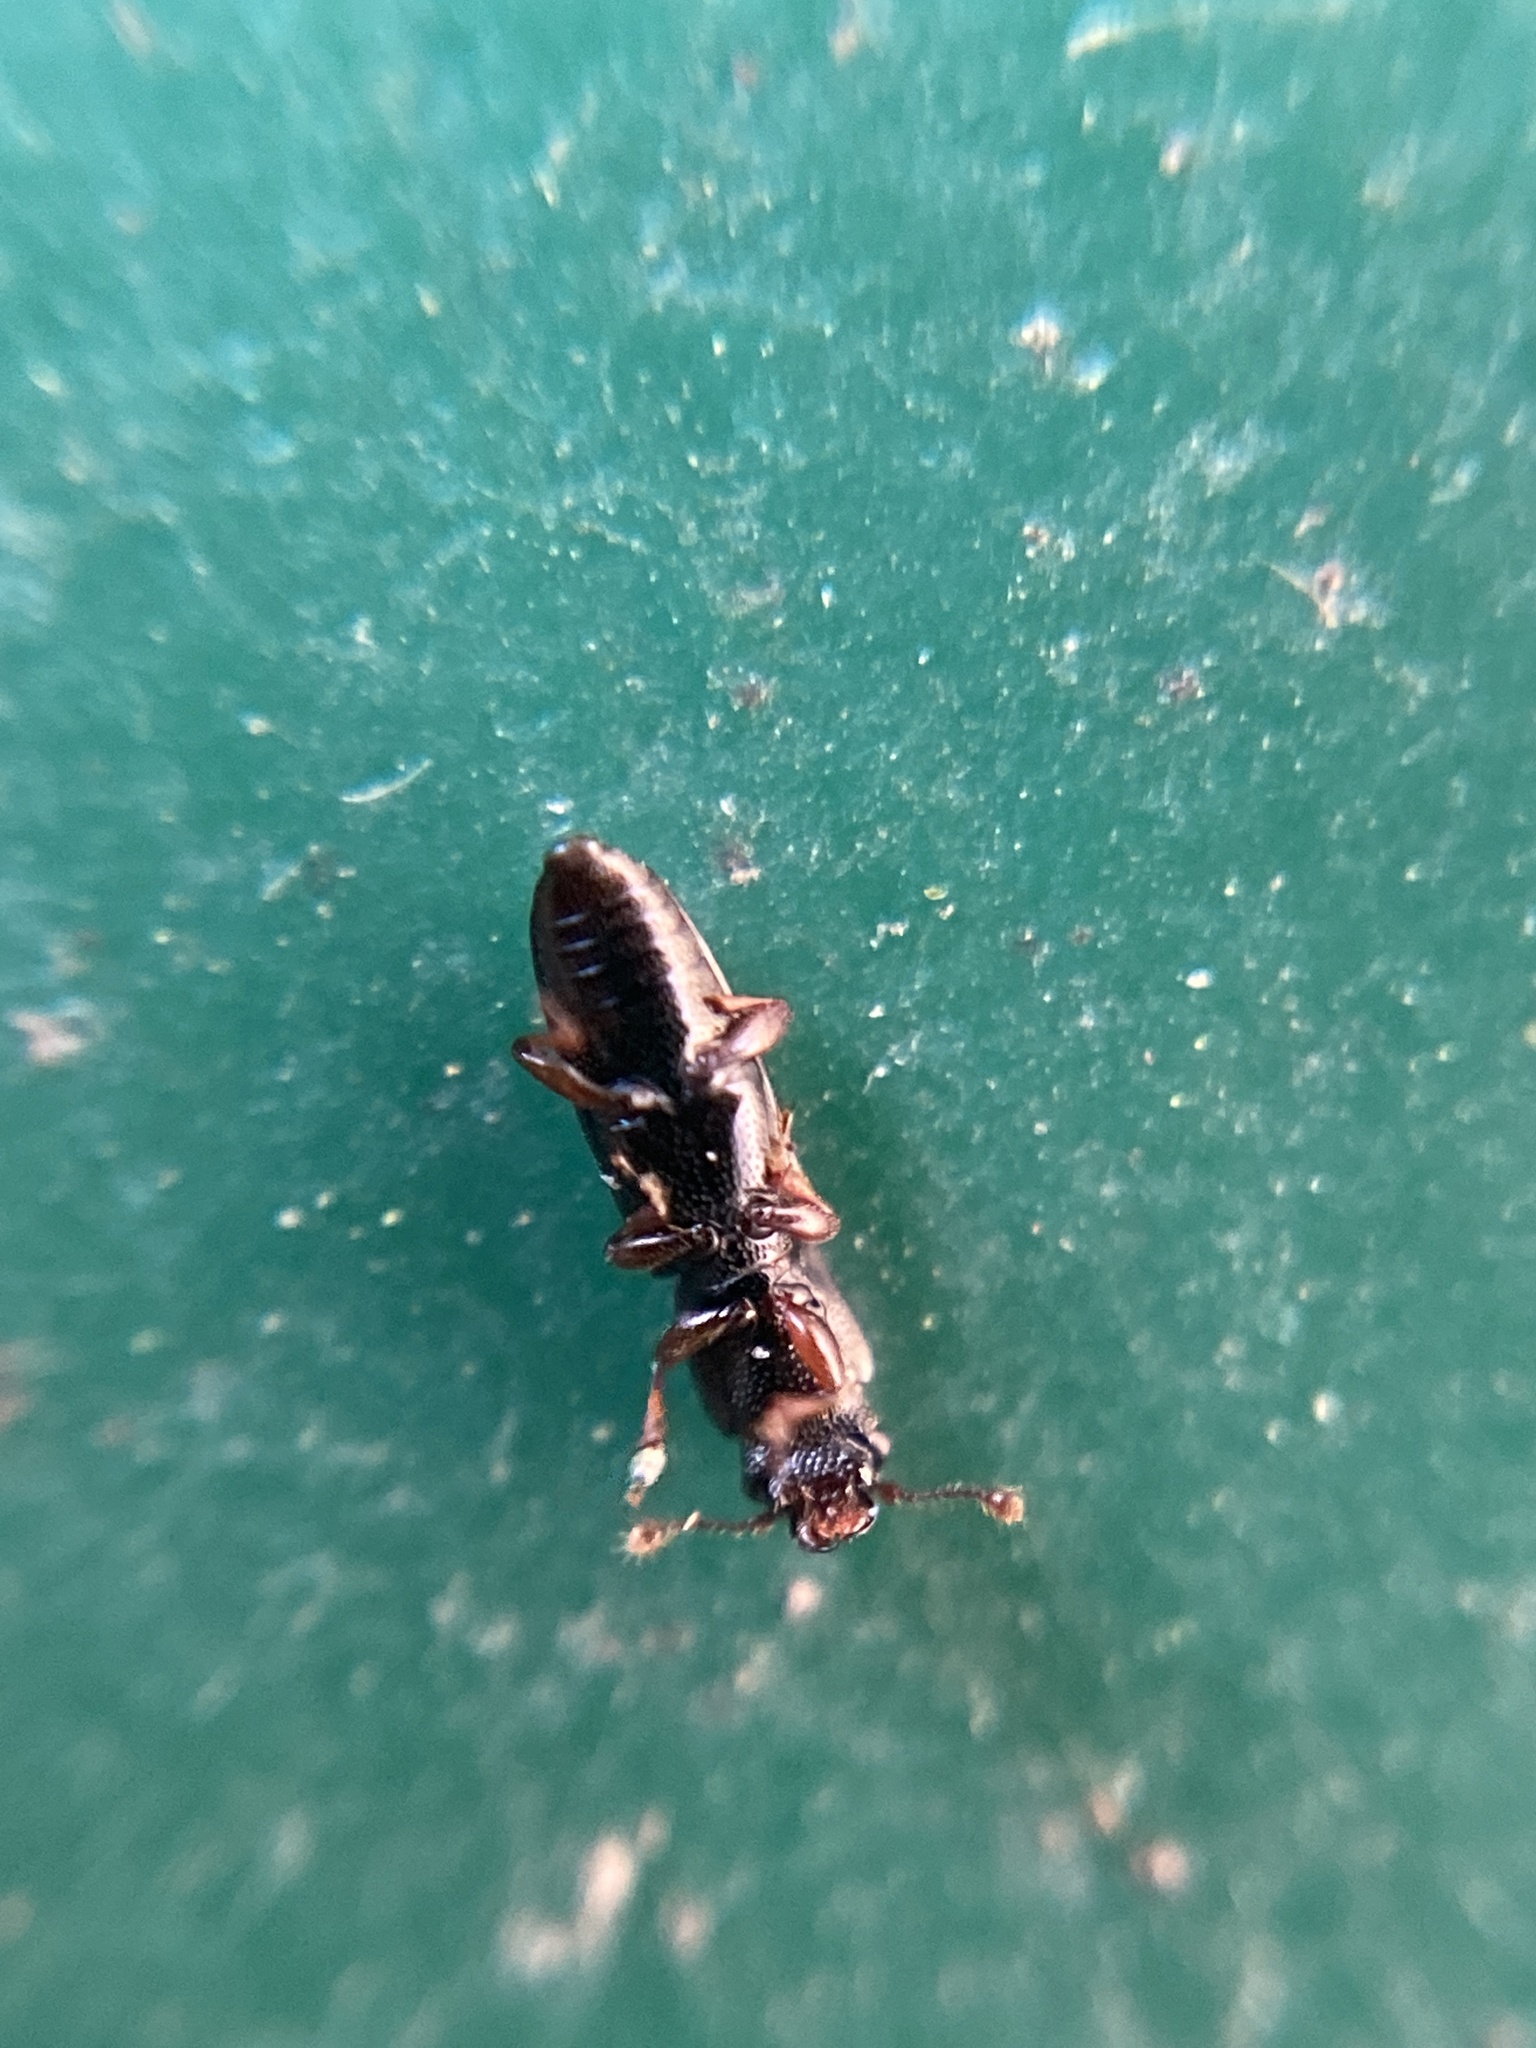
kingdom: Animalia
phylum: Arthropoda
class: Insecta
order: Coleoptera
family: Monotomidae
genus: Rhizophagus
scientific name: Rhizophagus bipustulatus
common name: Root-eating beetle
